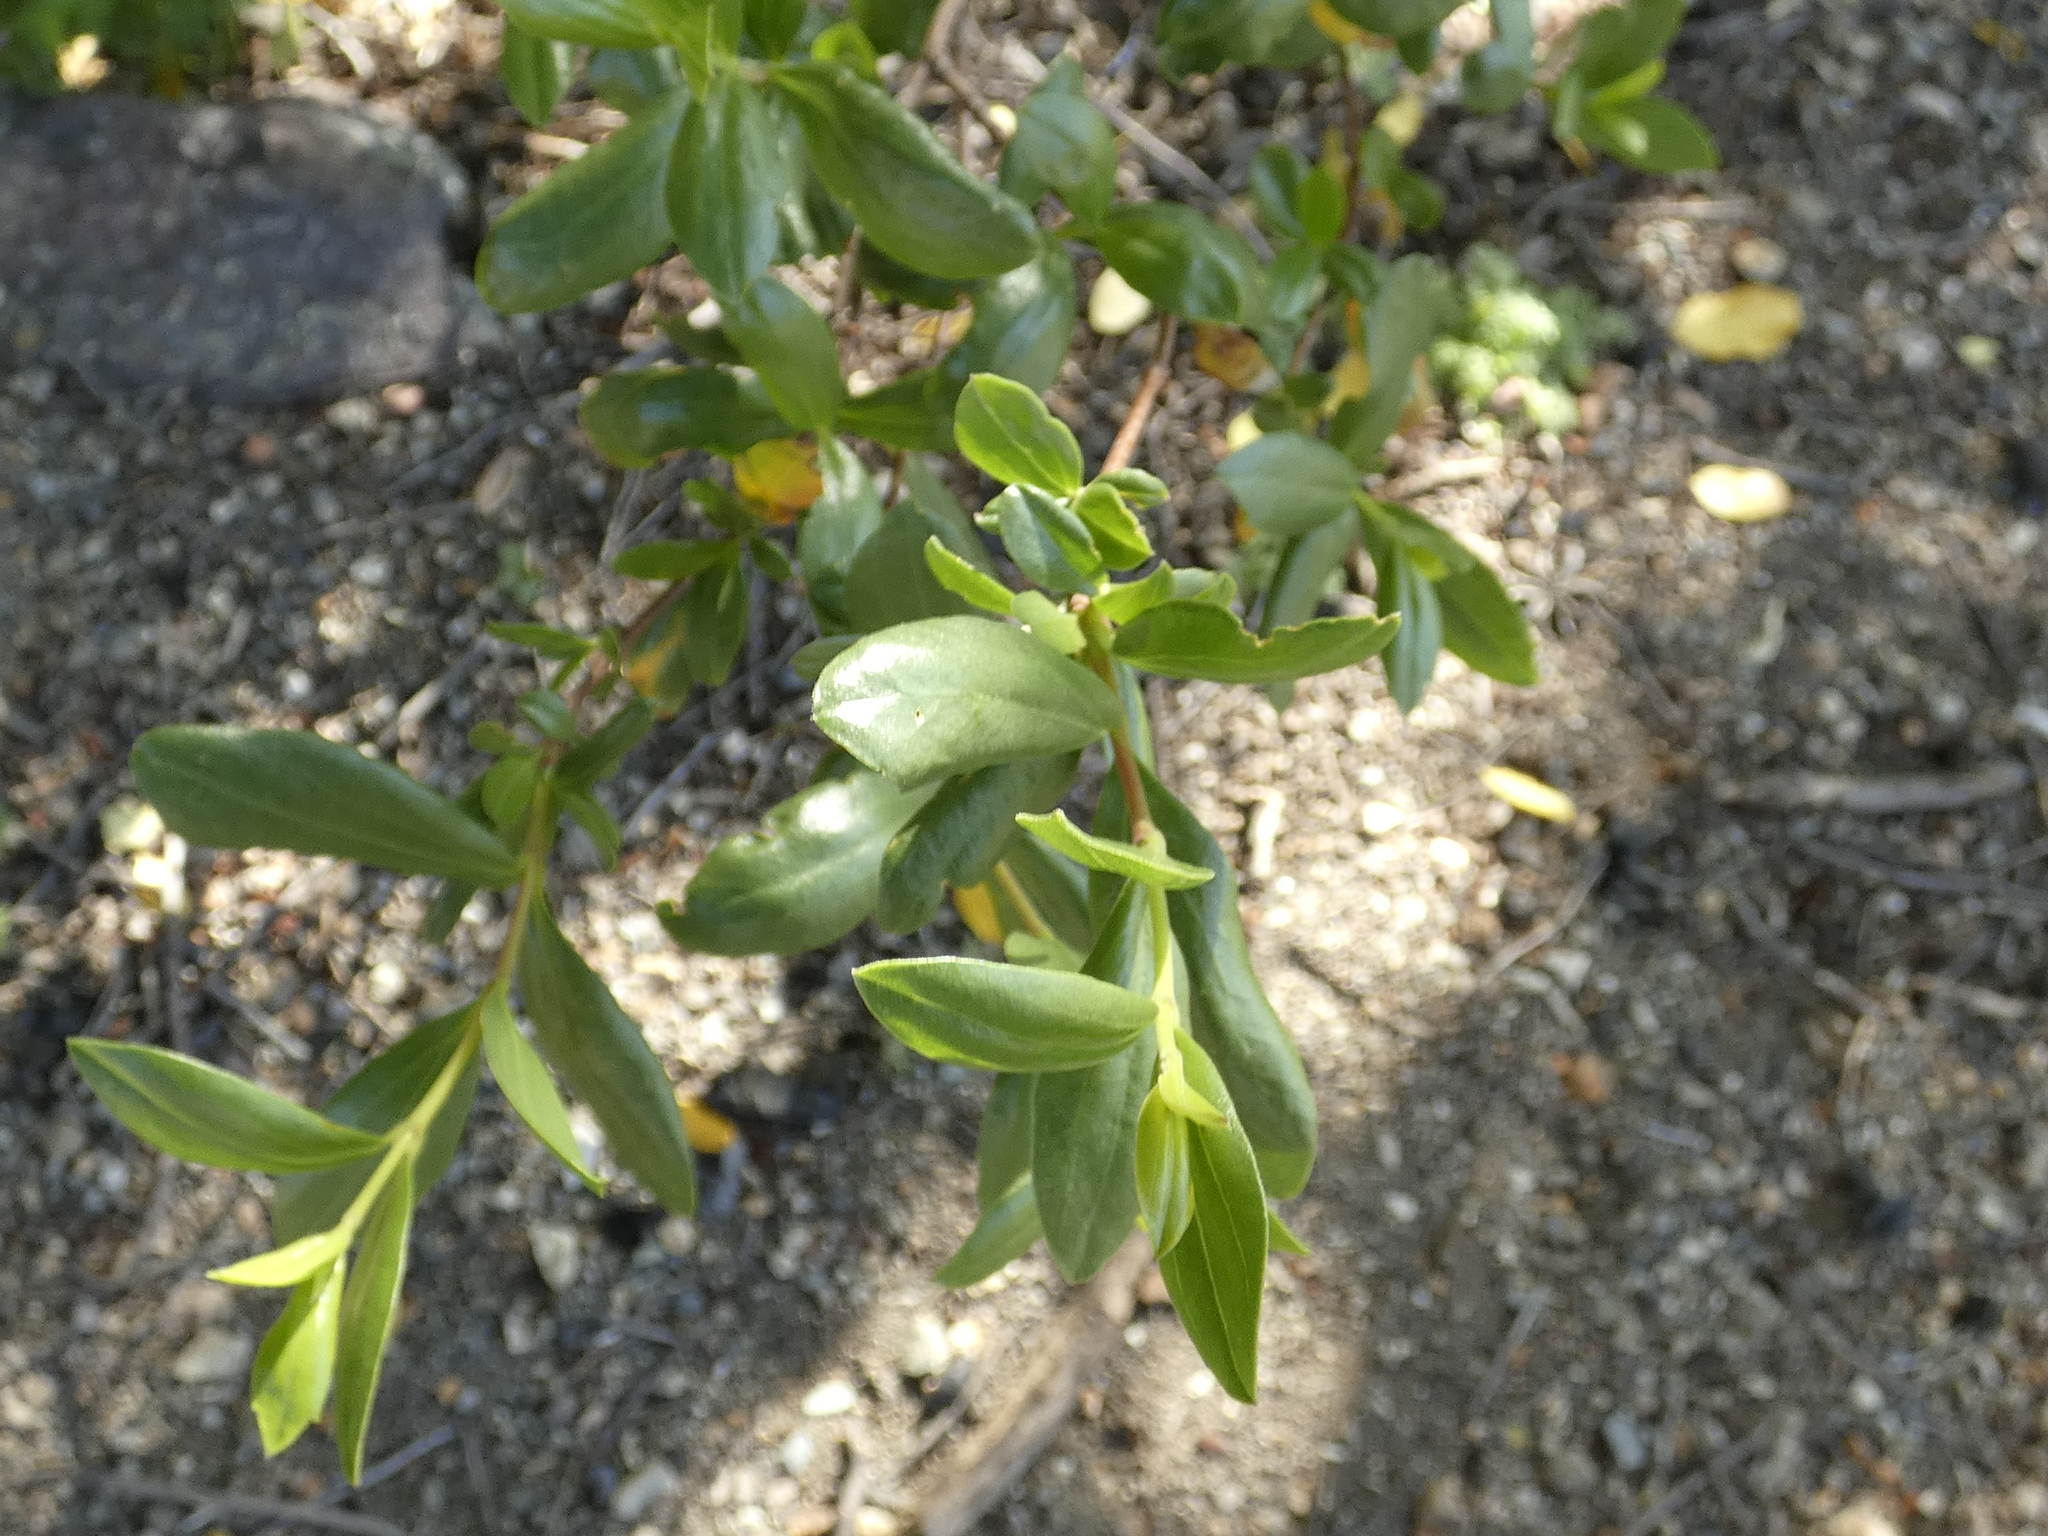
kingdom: Plantae
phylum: Tracheophyta
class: Magnoliopsida
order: Sapindales
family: Sapindaceae
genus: Guindilia
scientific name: Guindilia trinervis
